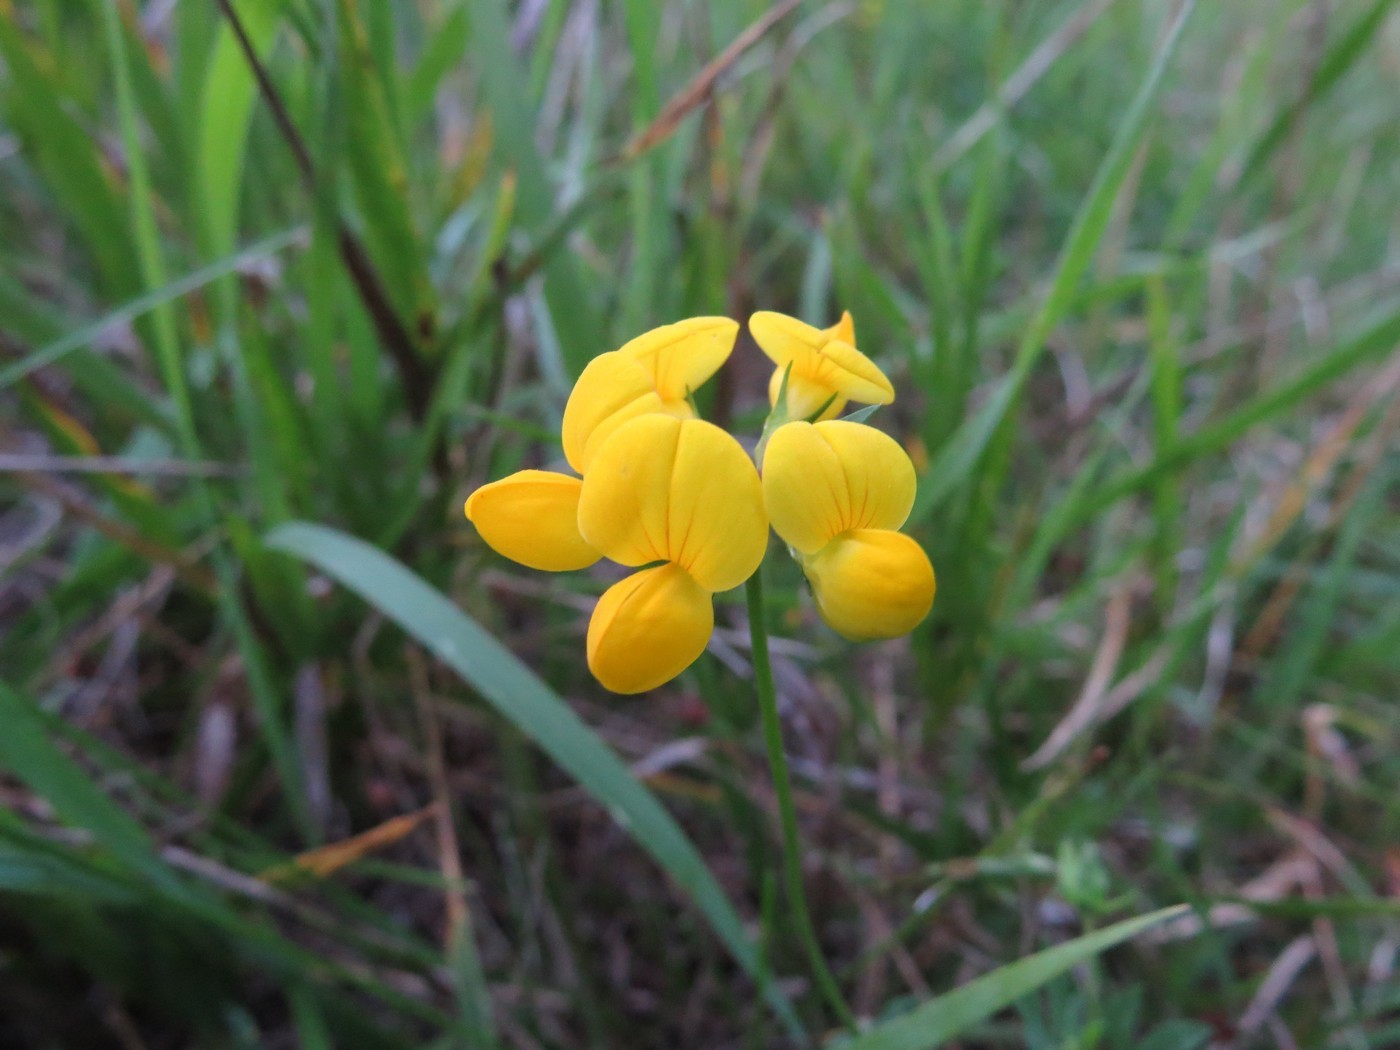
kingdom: Plantae
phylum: Tracheophyta
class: Magnoliopsida
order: Fabales
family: Fabaceae
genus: Lotus
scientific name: Lotus corniculatus
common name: Common bird's-foot-trefoil
